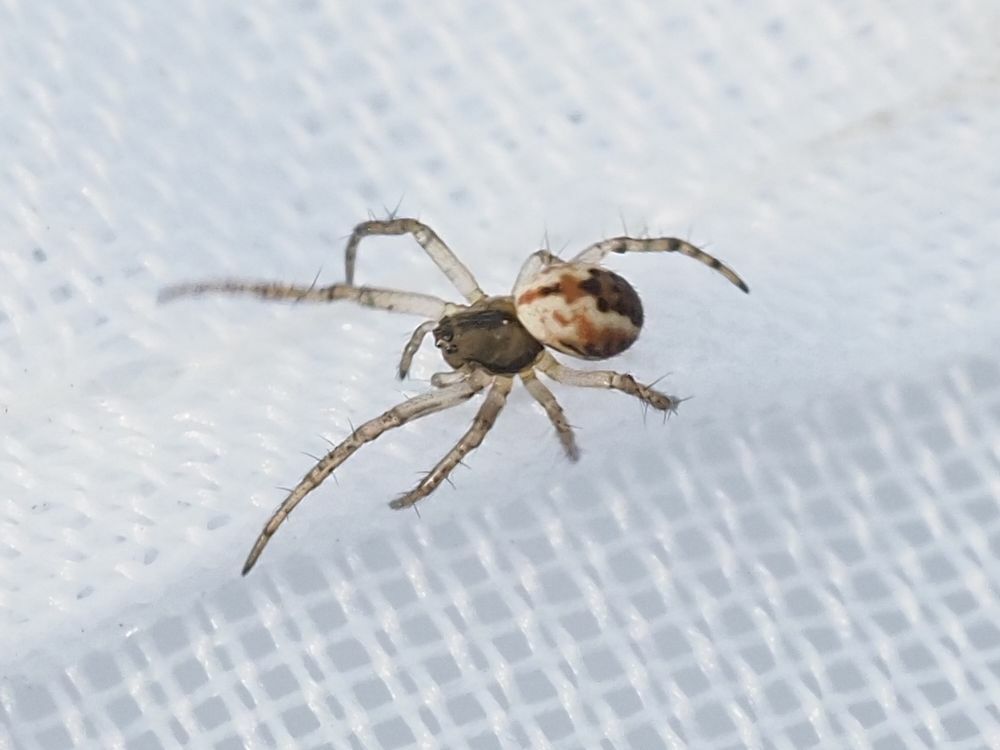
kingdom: Animalia
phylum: Arthropoda
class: Arachnida
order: Araneae
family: Araneidae
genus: Mangora
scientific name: Mangora acalypha
